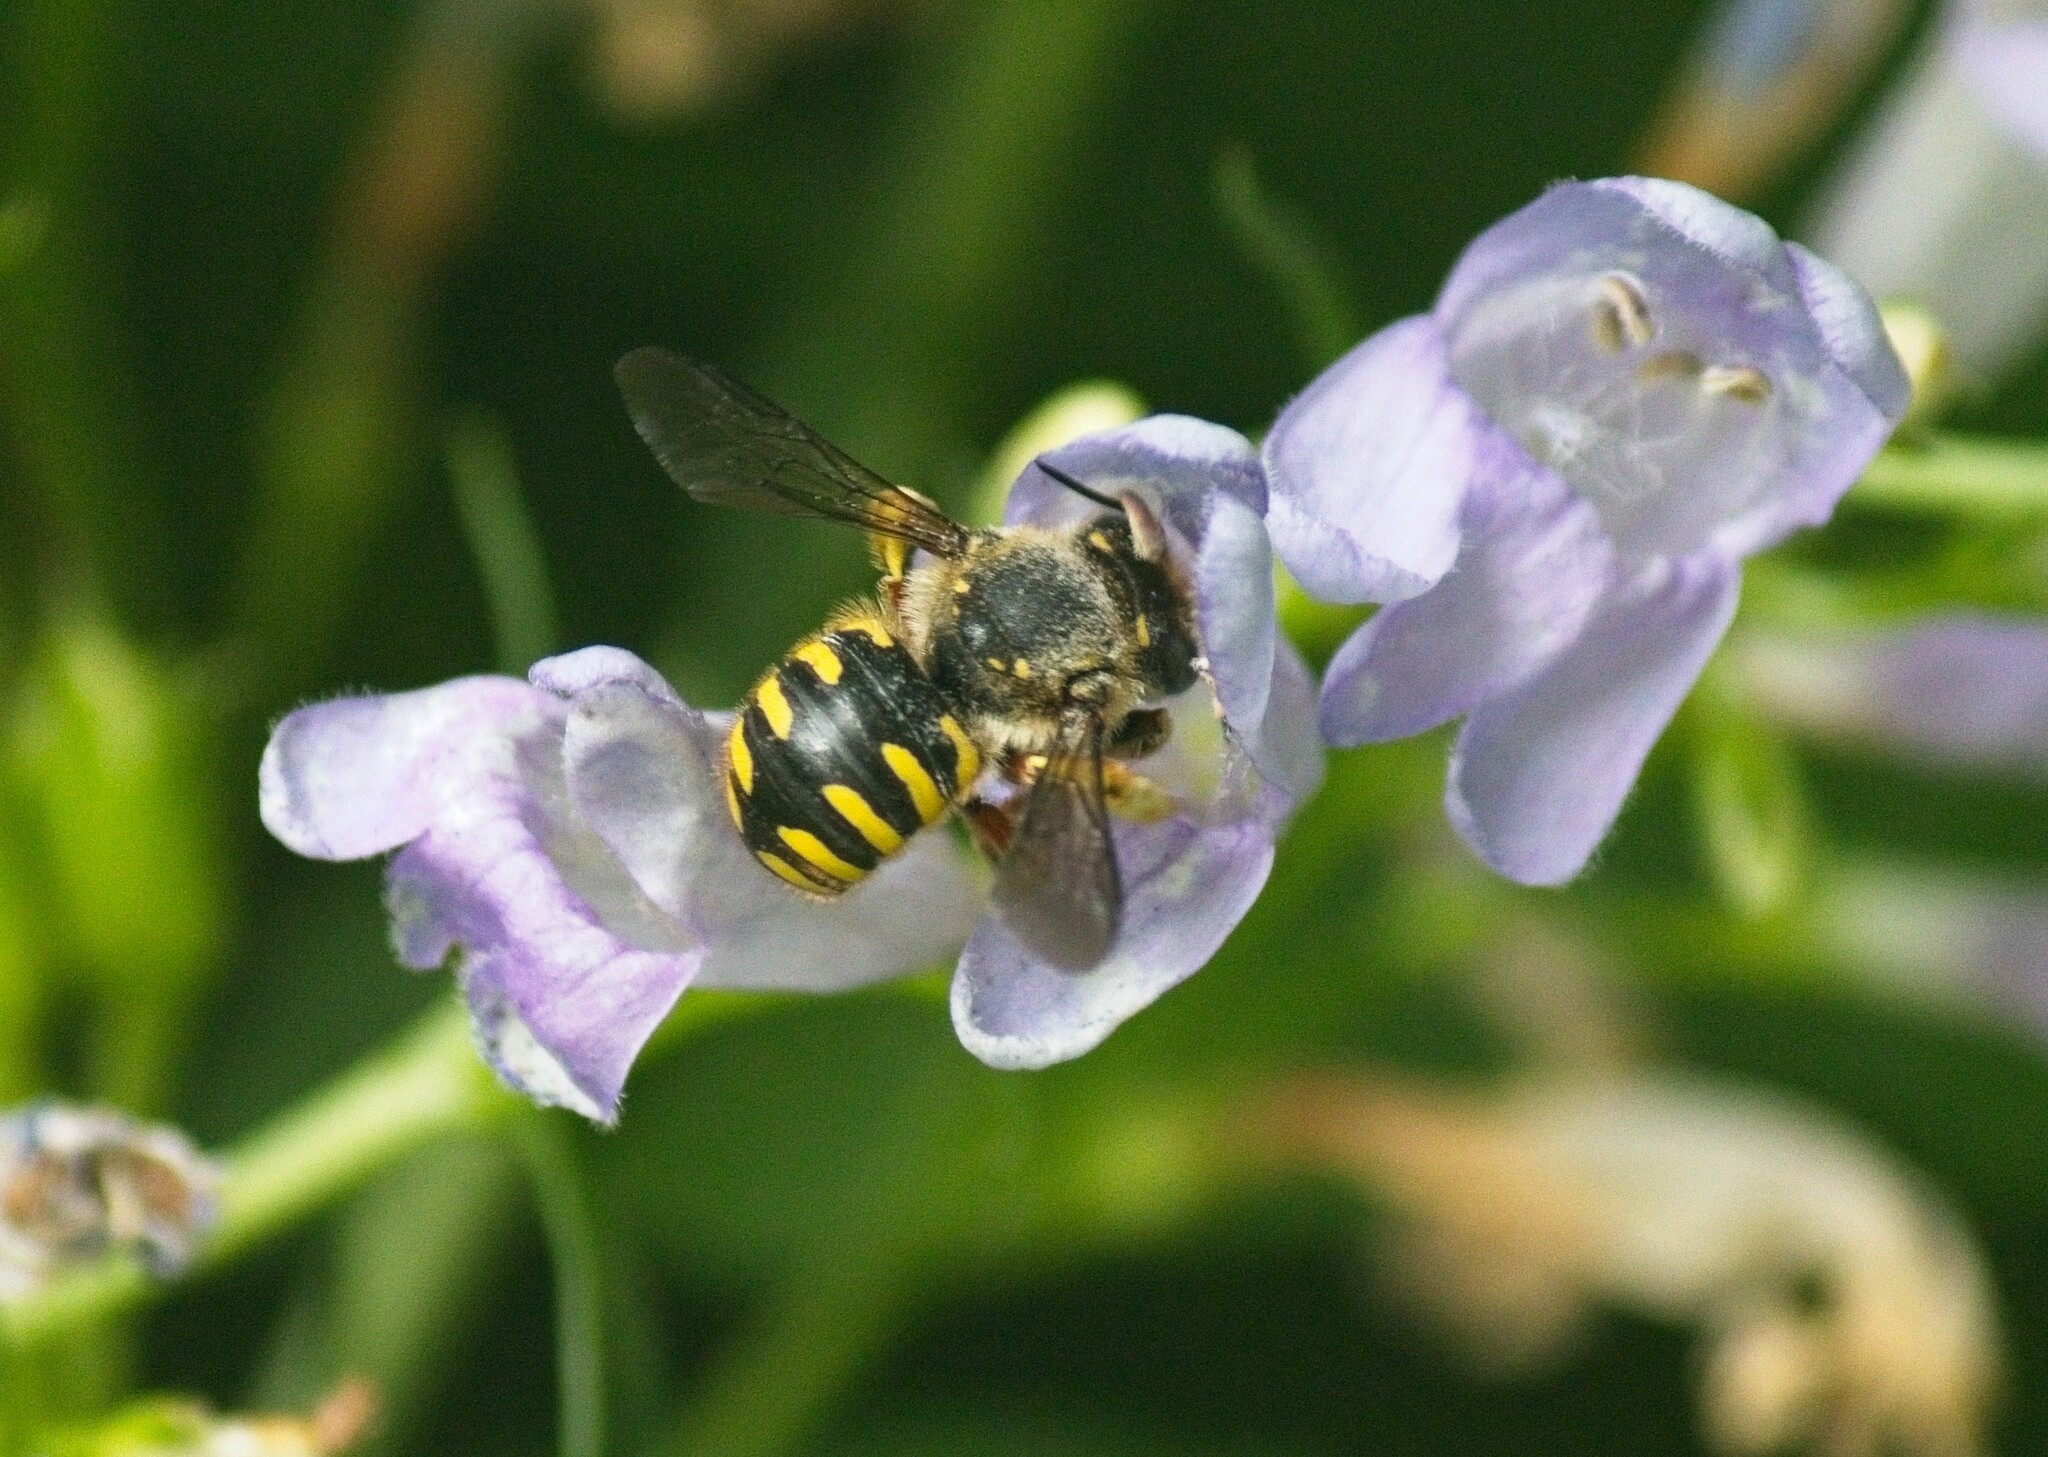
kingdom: Animalia
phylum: Arthropoda
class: Insecta
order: Hymenoptera
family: Megachilidae
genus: Anthidium
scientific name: Anthidium manicatum
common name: Wool carder bee
